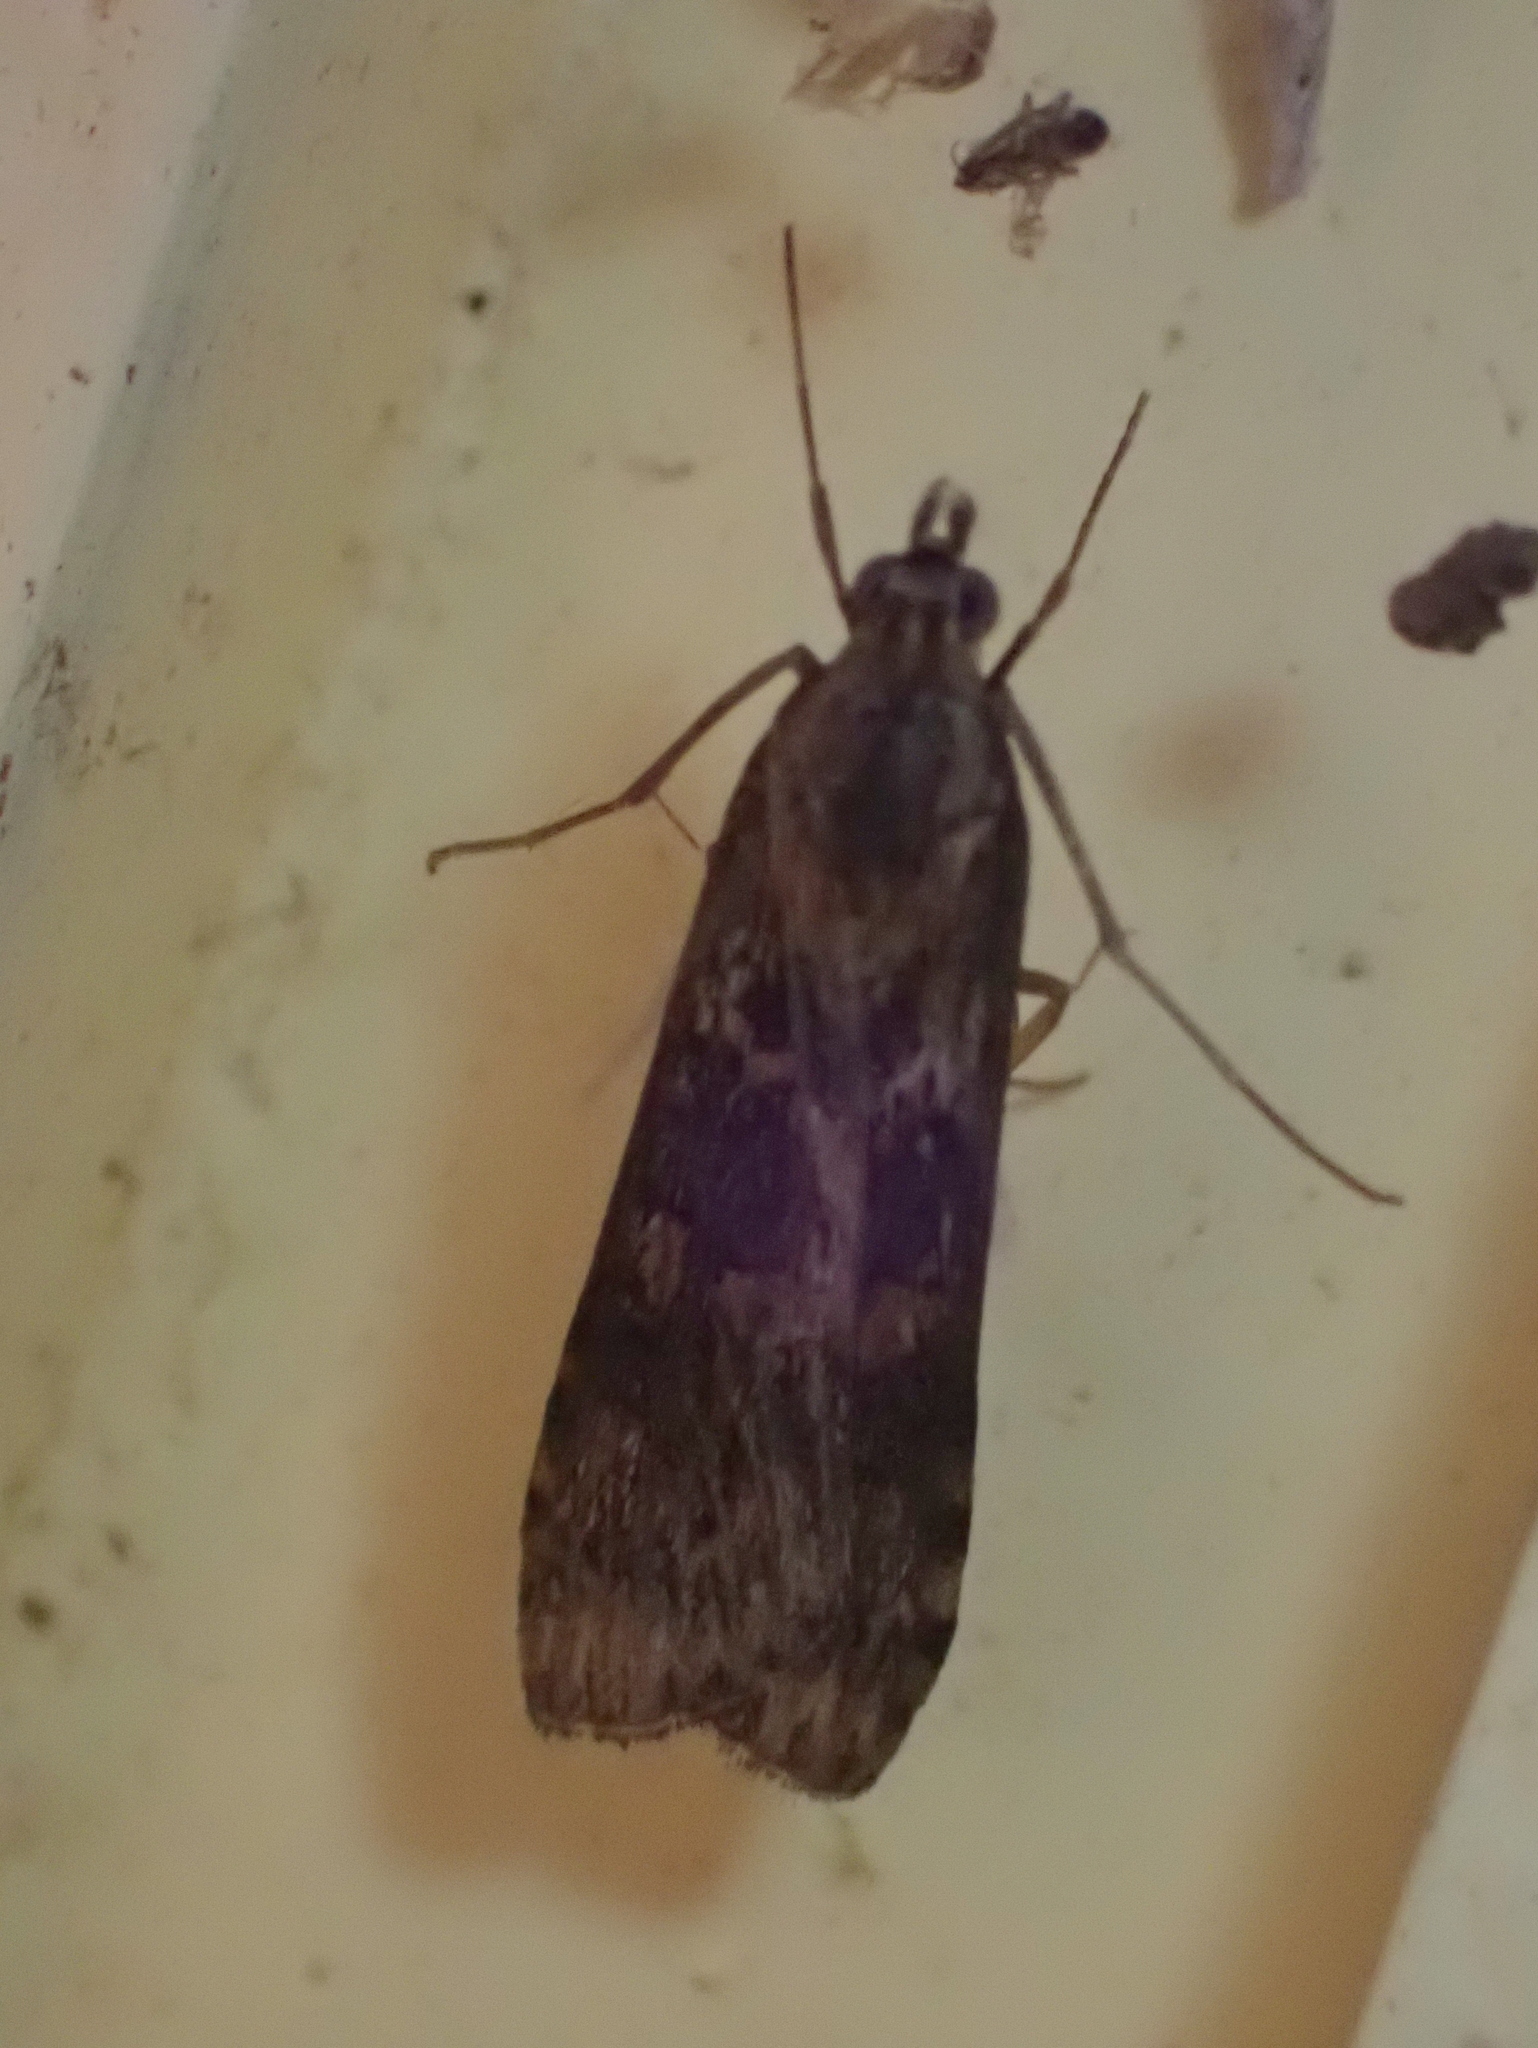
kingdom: Animalia
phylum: Arthropoda
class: Insecta
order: Lepidoptera
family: Crambidae
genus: Nomophila
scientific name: Nomophila nearctica
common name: American rush veneer
